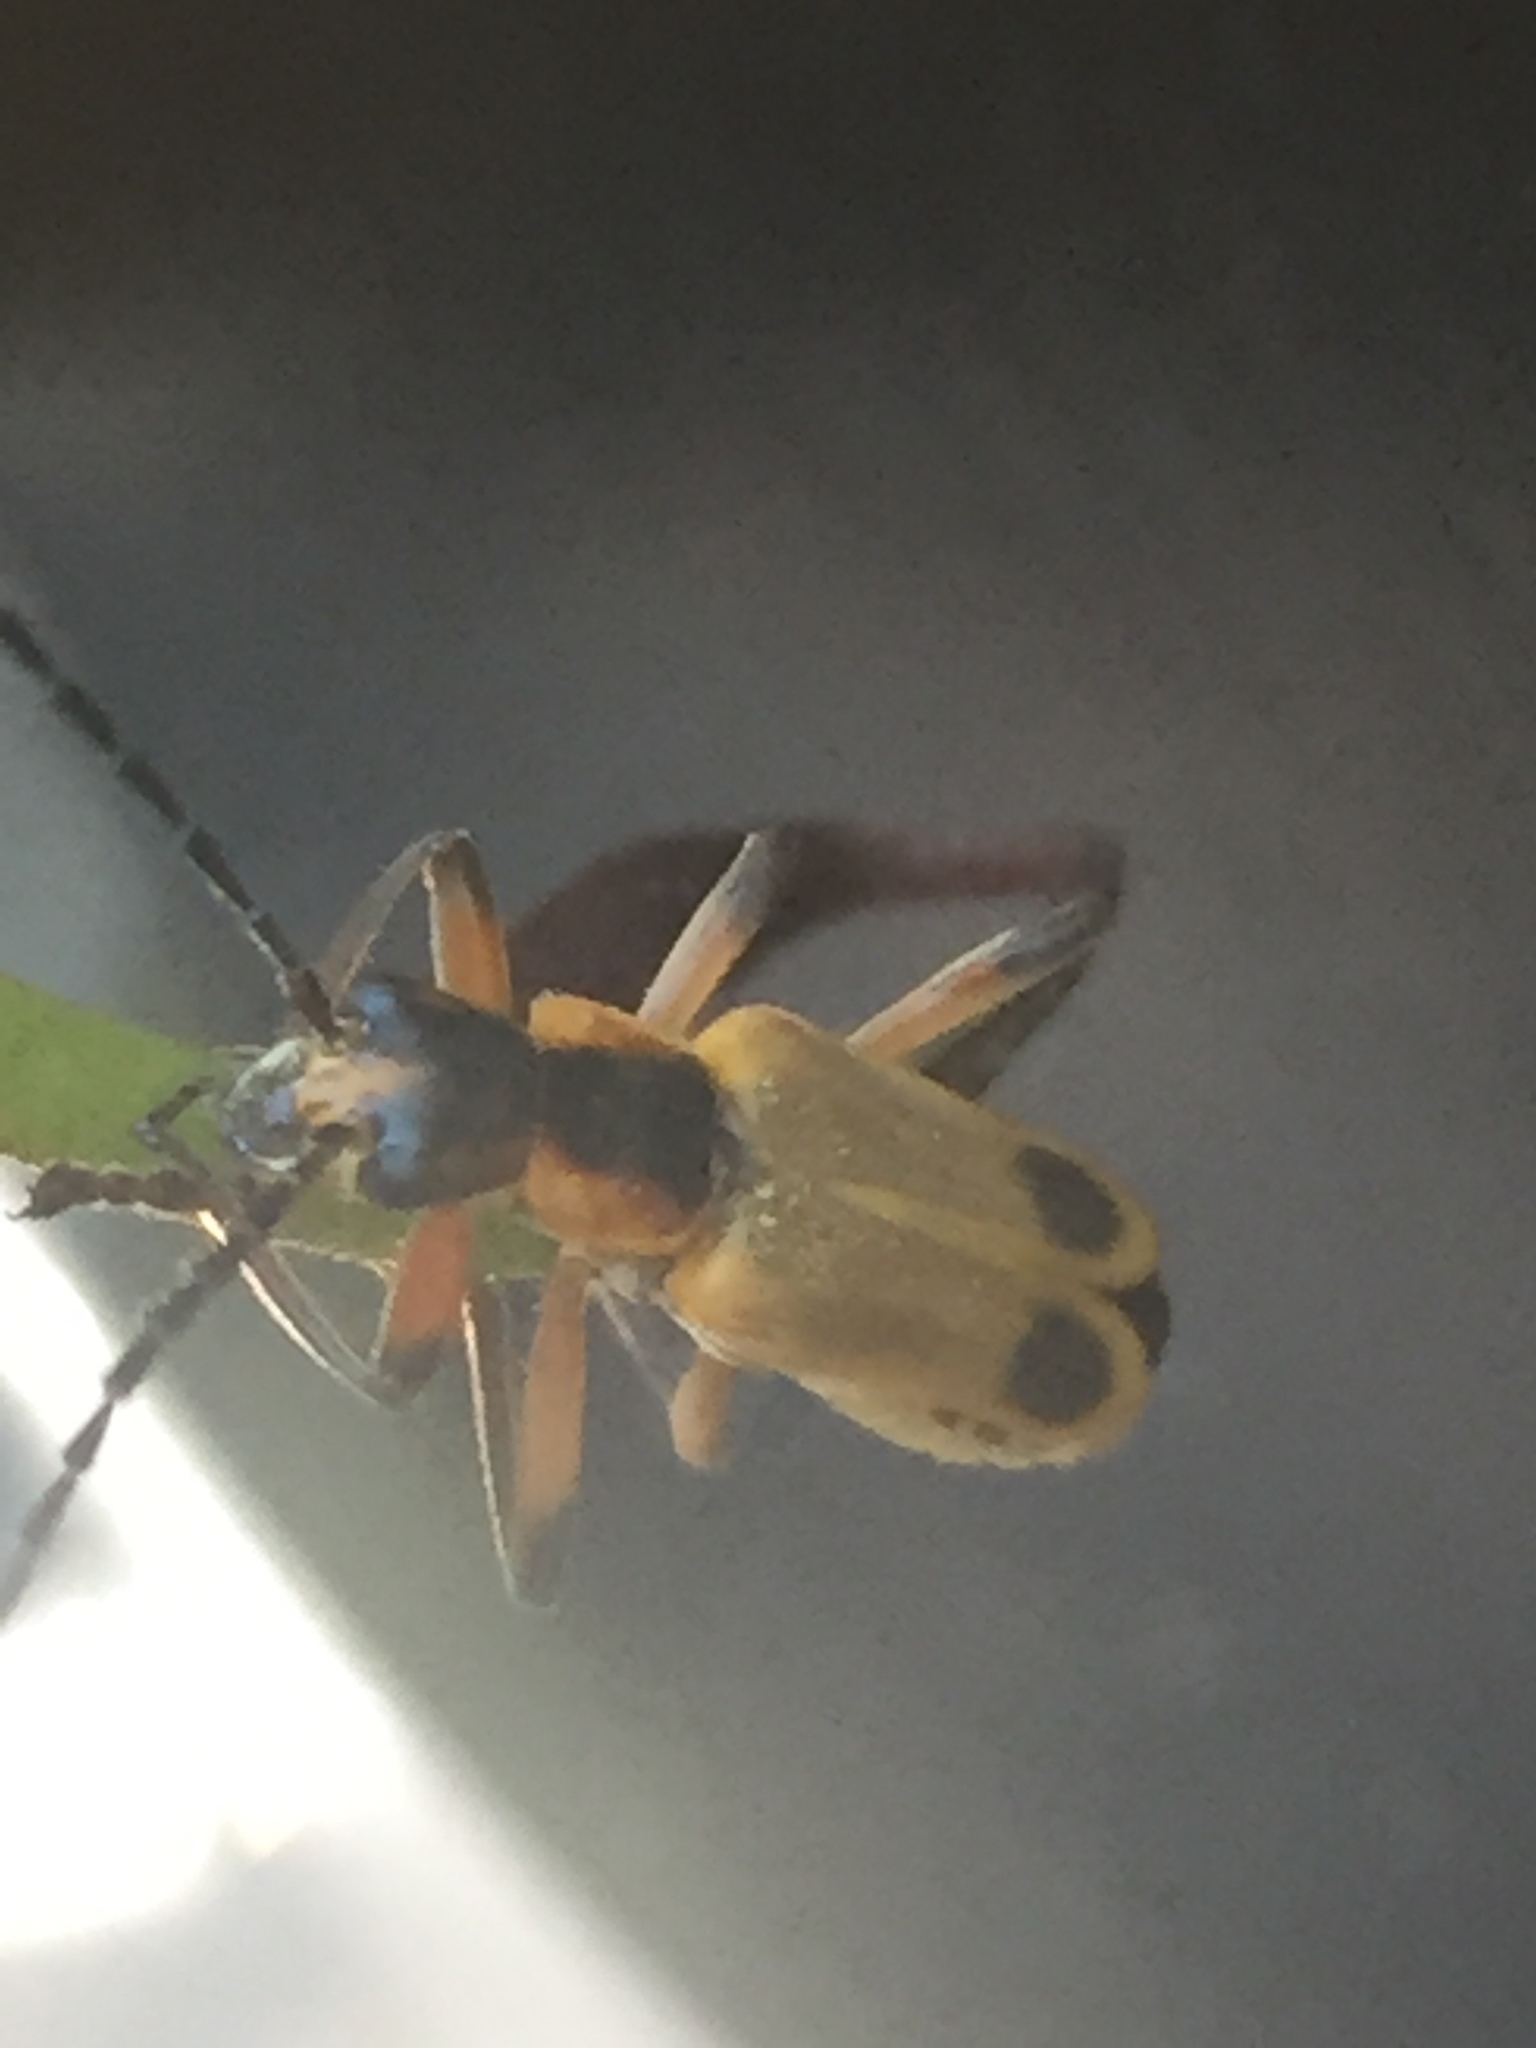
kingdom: Animalia
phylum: Arthropoda
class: Insecta
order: Coleoptera
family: Cantharidae
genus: Chauliognathus
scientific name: Chauliognathus marginatus
